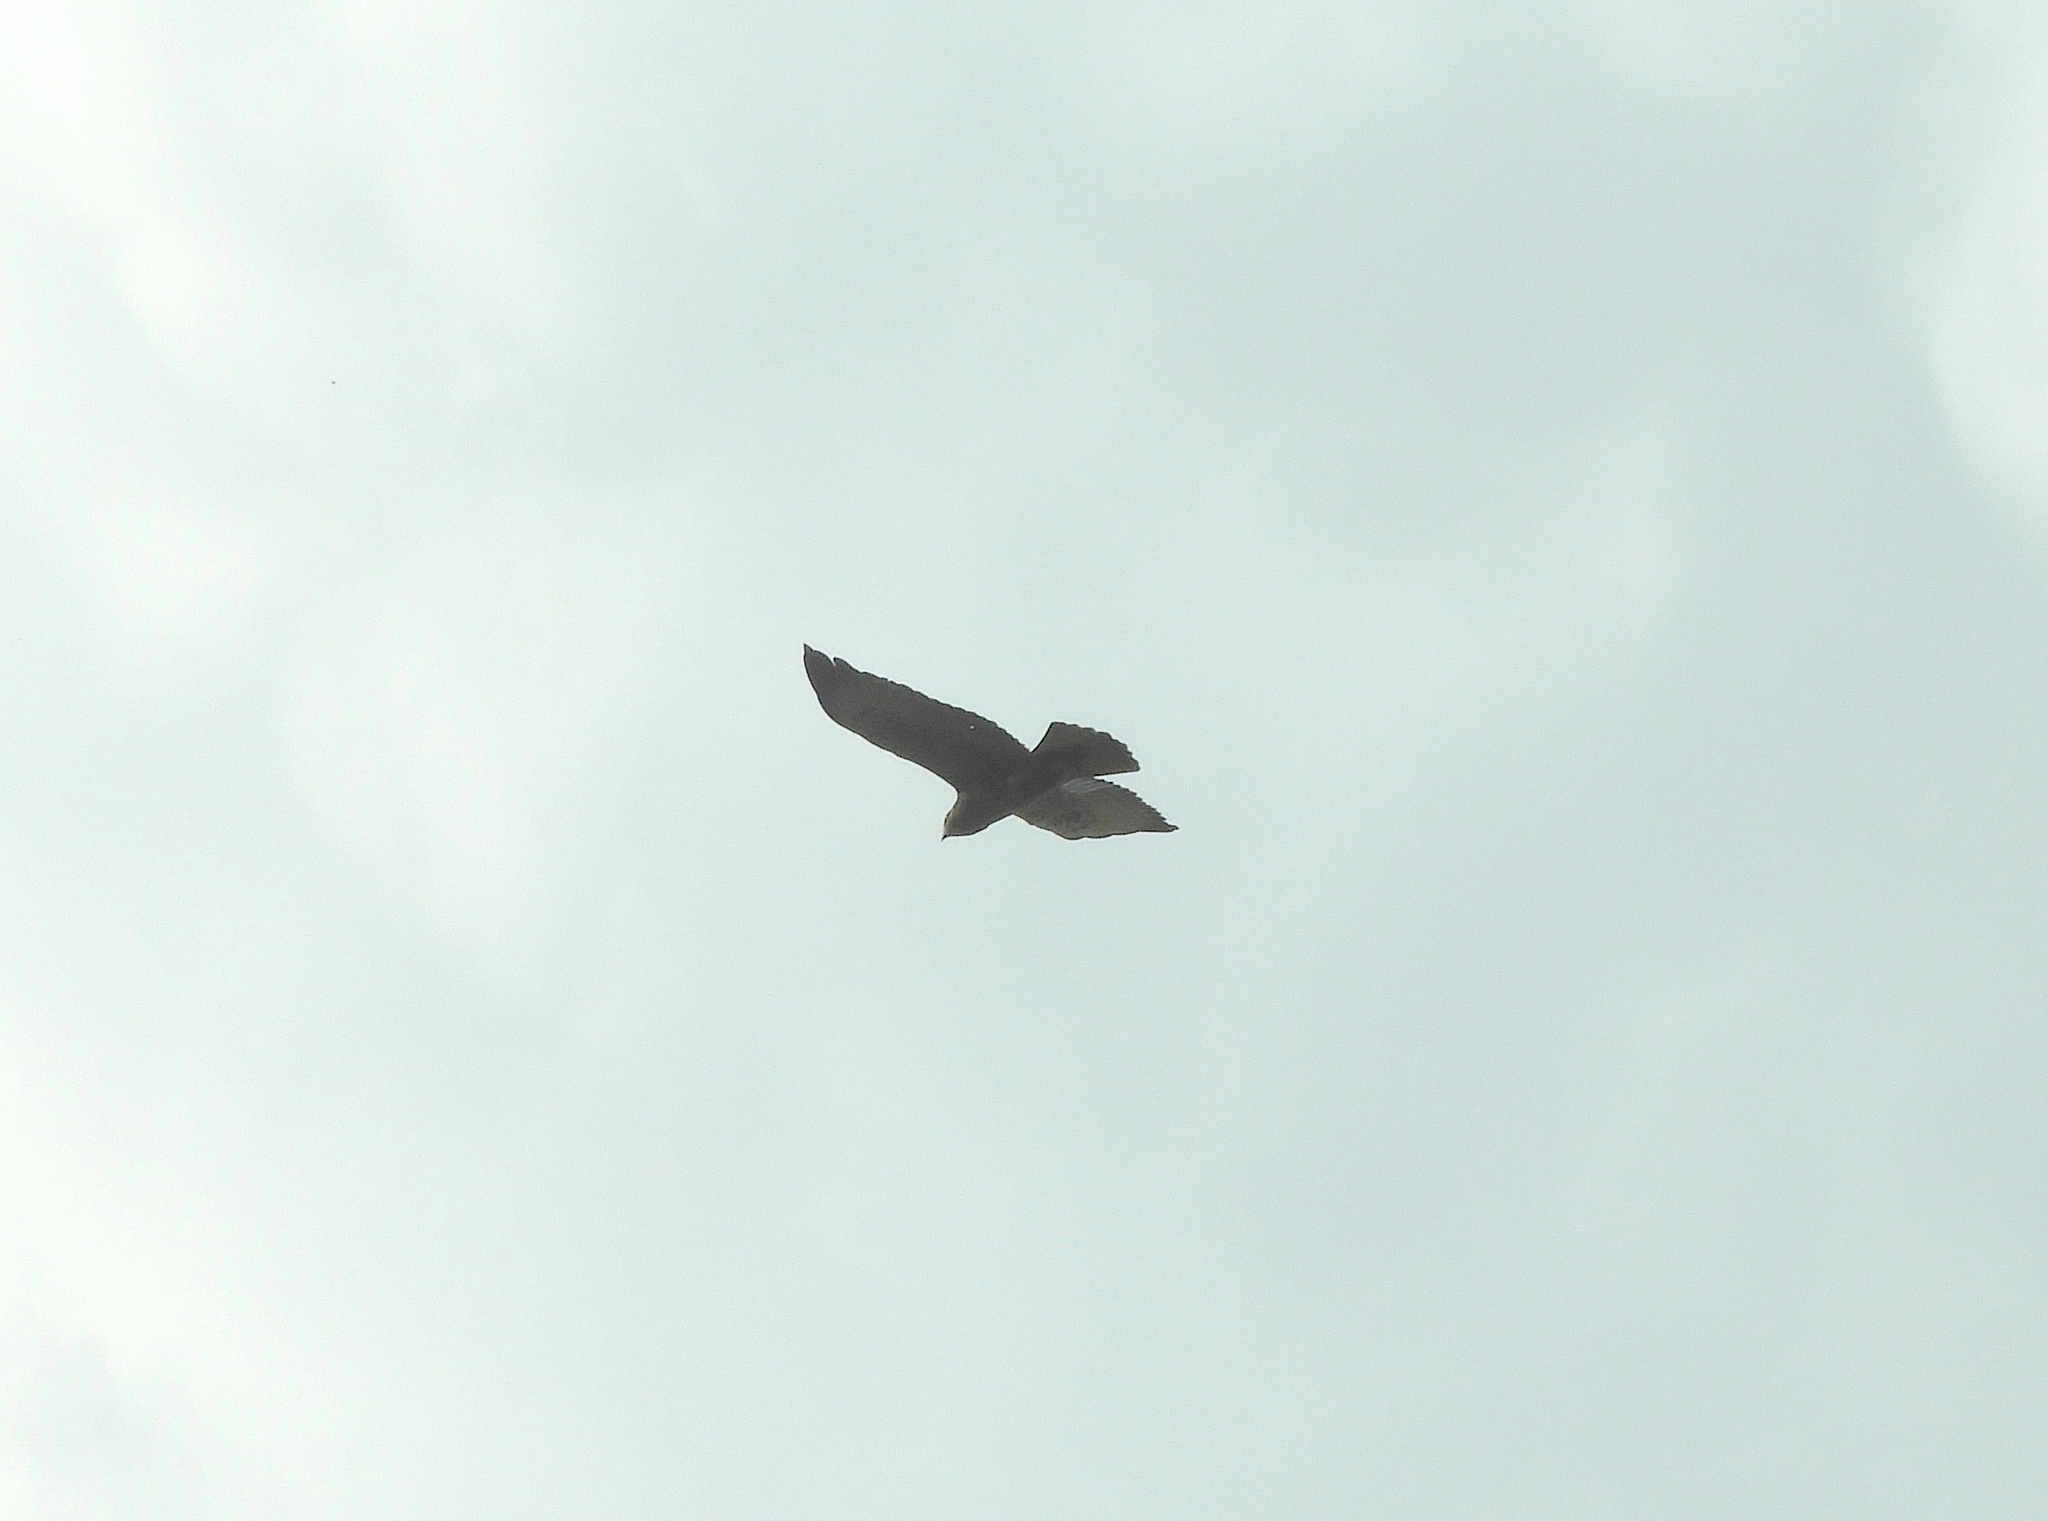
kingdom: Animalia
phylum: Chordata
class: Aves
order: Accipitriformes
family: Accipitridae
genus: Buteo
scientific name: Buteo brachyurus
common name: Short-tailed hawk
